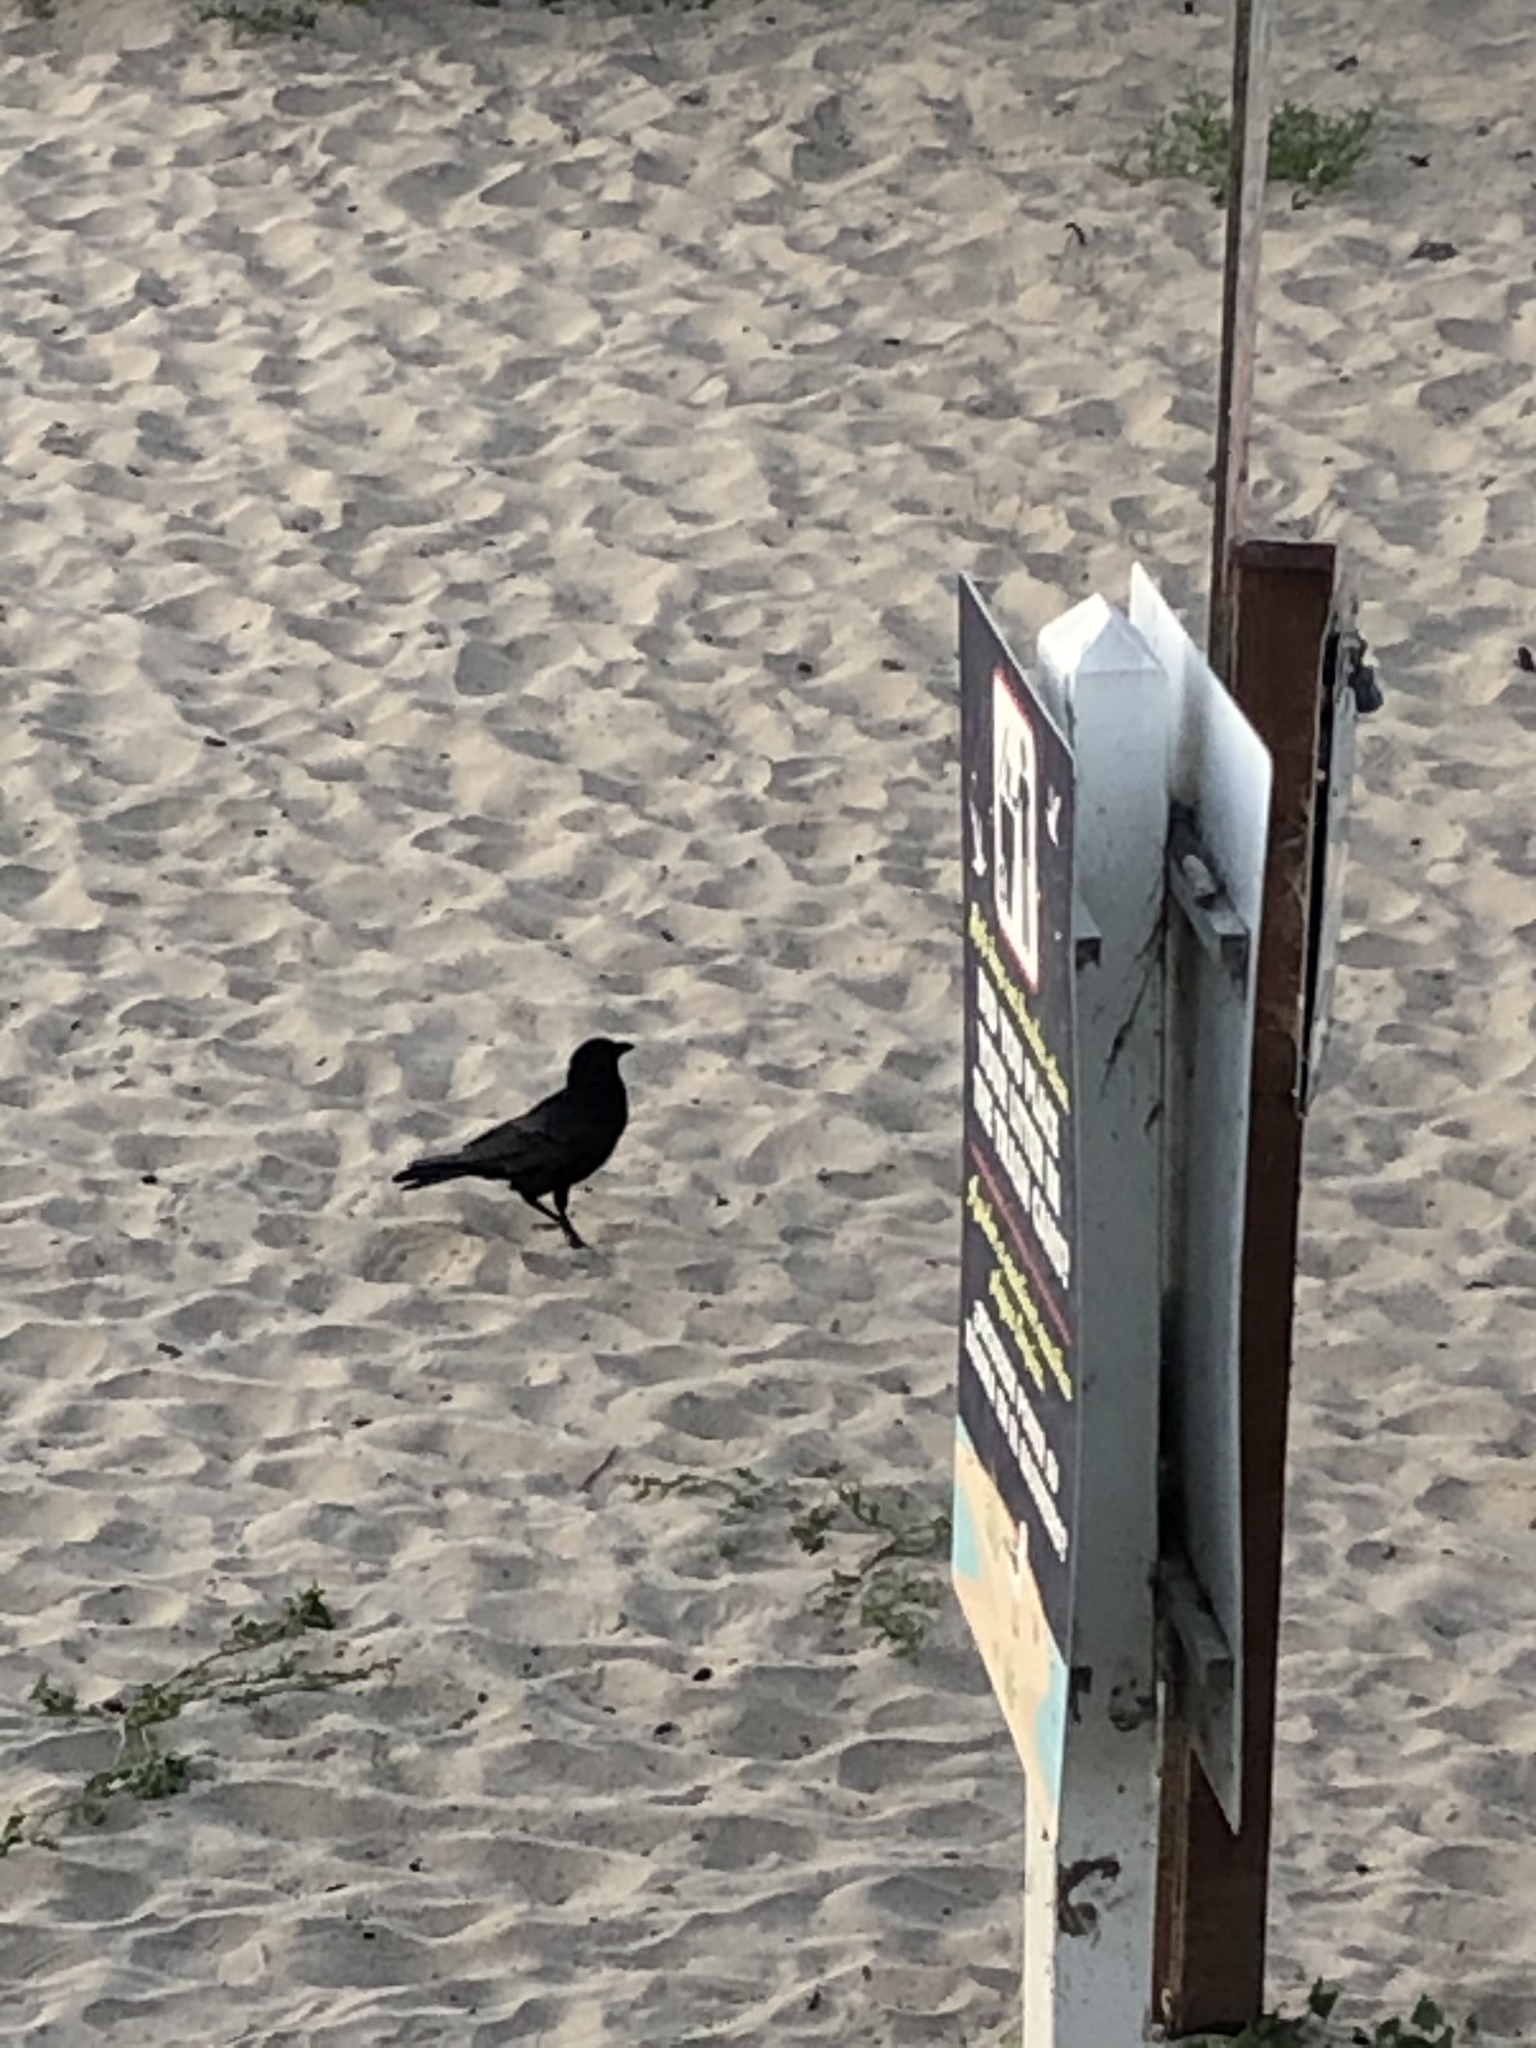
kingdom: Animalia
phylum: Chordata
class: Aves
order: Passeriformes
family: Corvidae
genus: Corvus
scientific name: Corvus brachyrhynchos
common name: American crow
